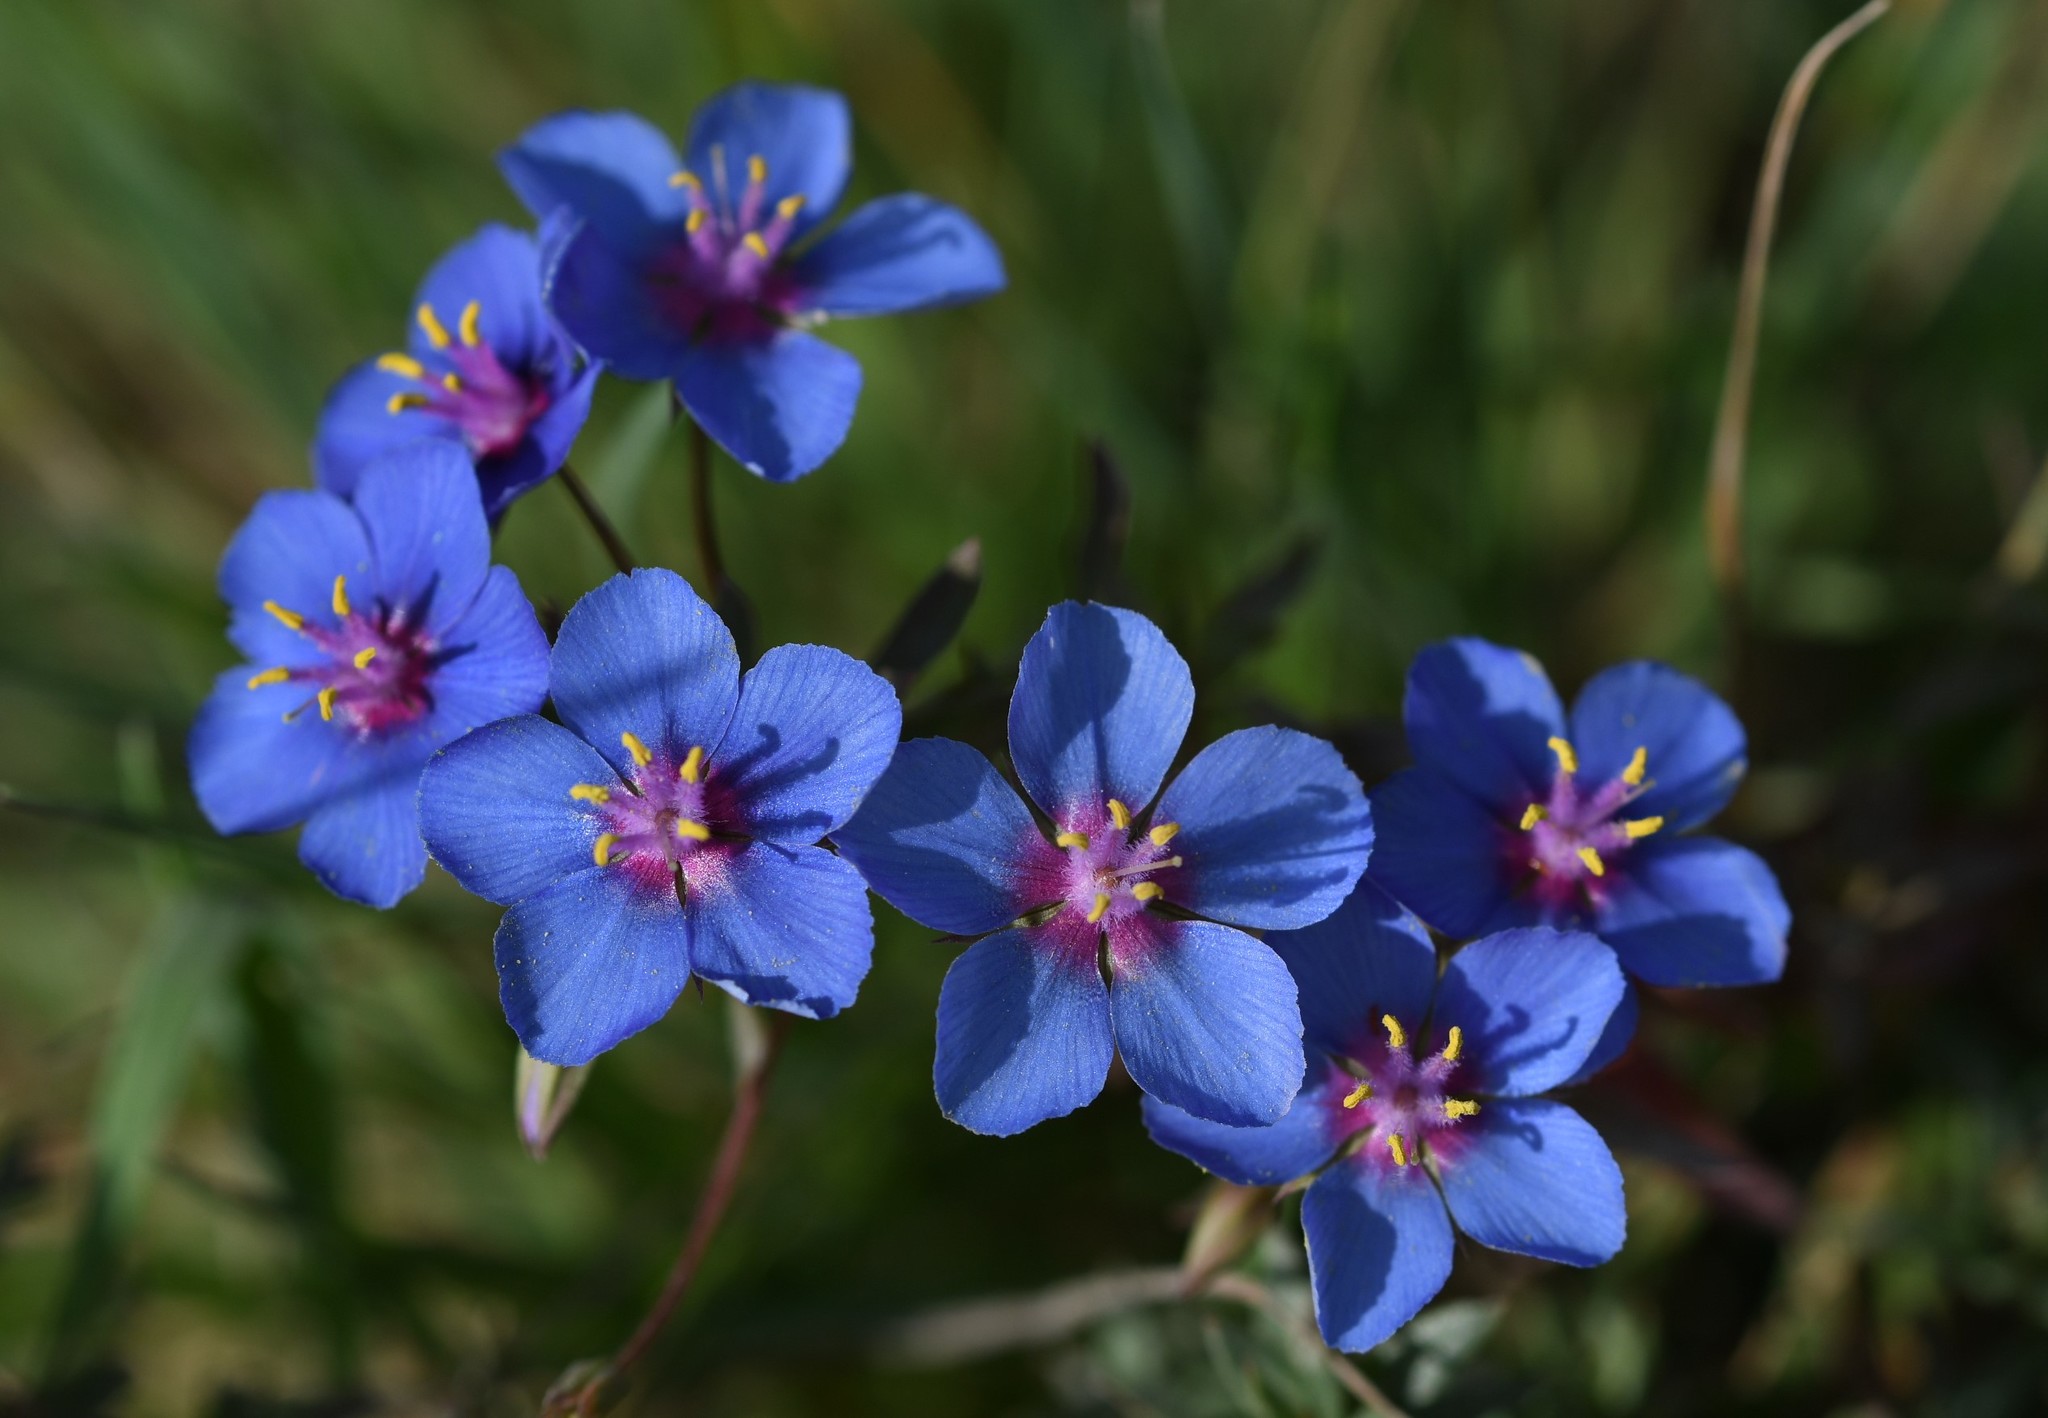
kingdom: Plantae
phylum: Tracheophyta
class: Magnoliopsida
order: Ericales
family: Primulaceae
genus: Lysimachia
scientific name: Lysimachia monelli
